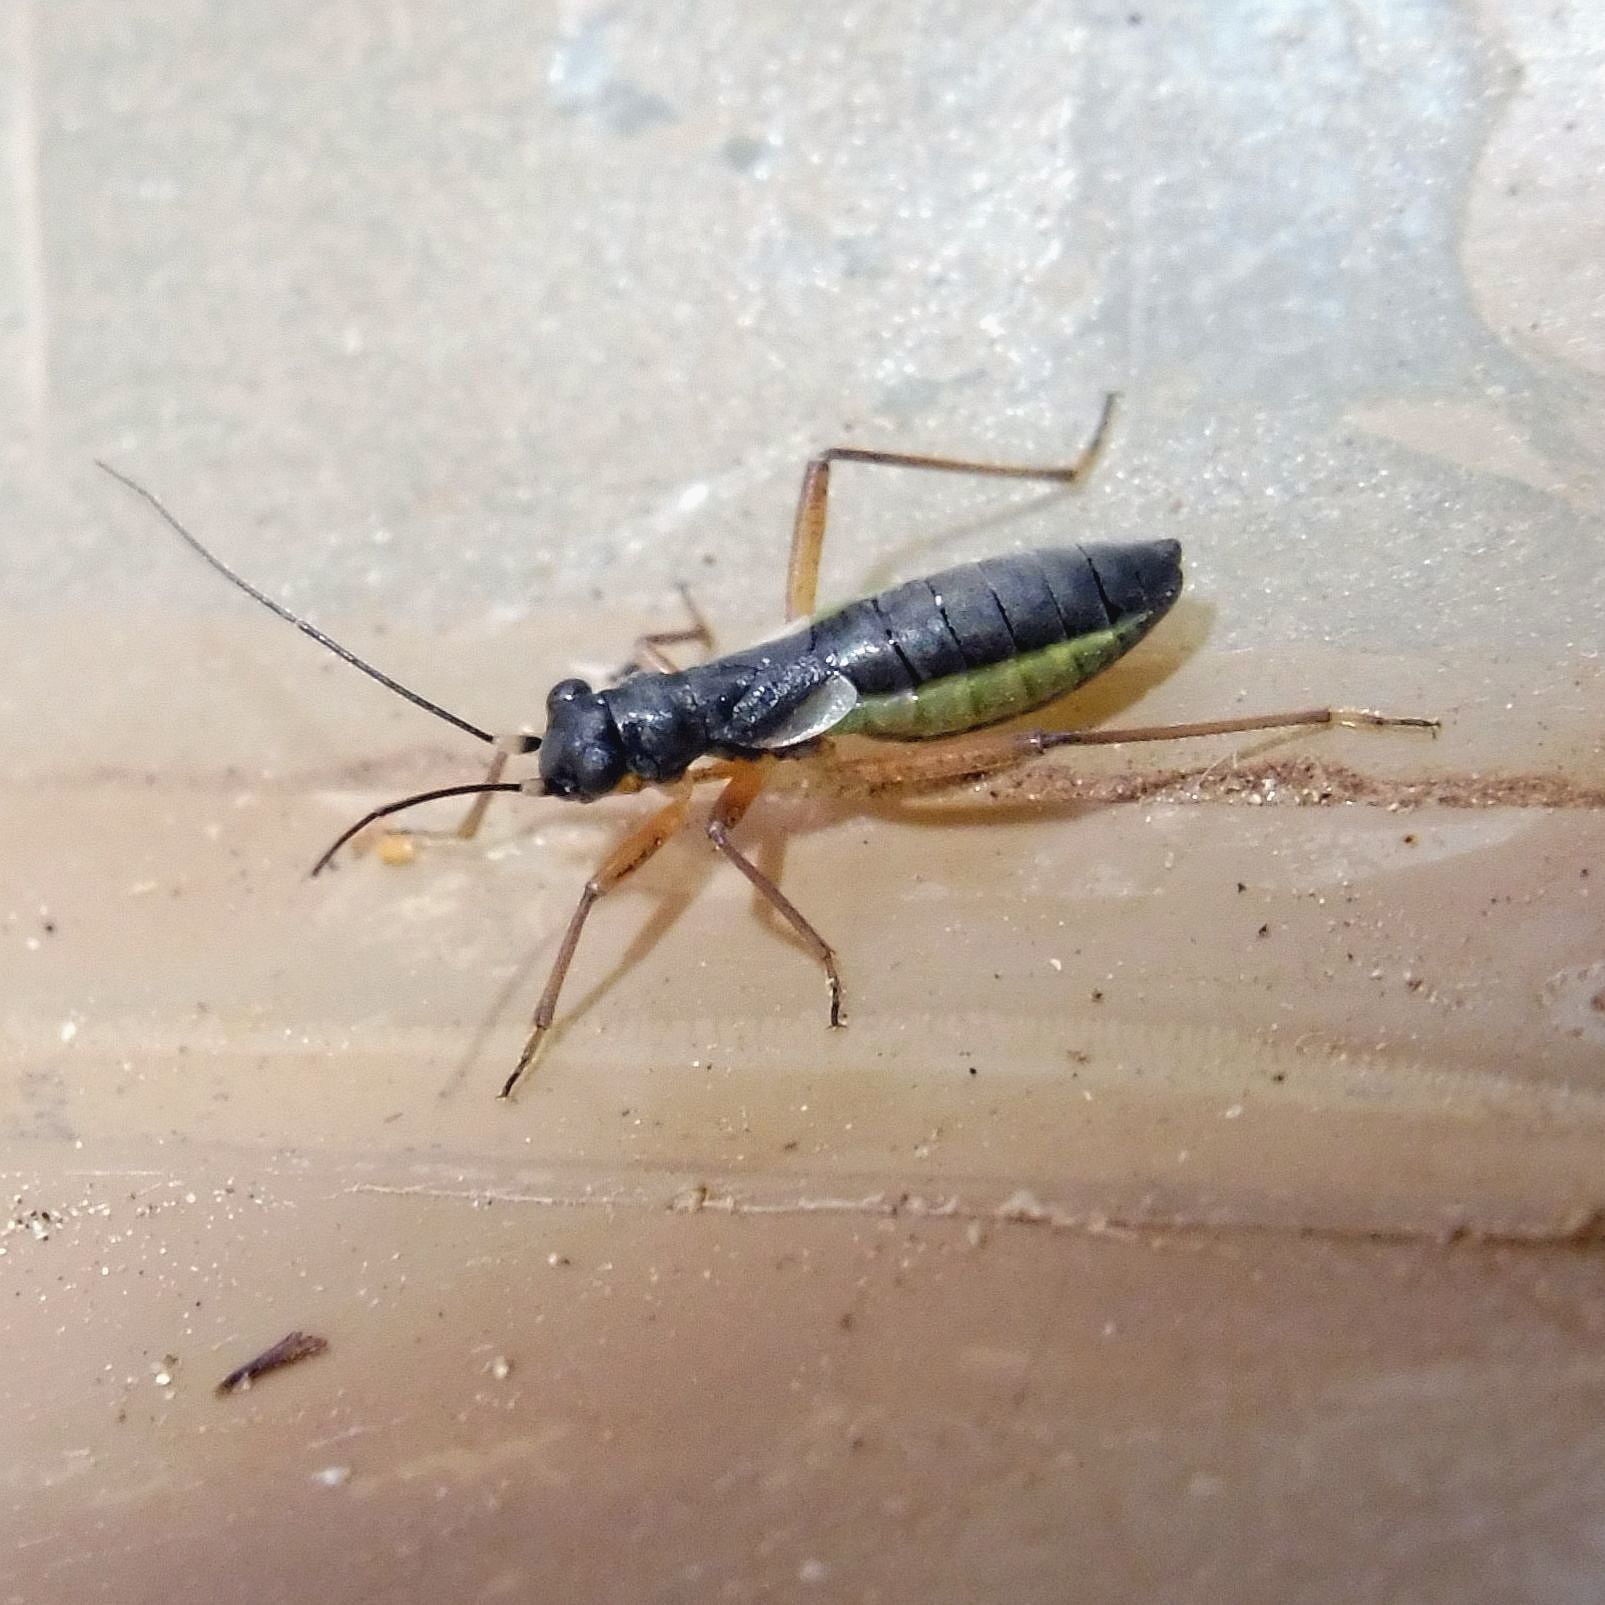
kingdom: Animalia
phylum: Arthropoda
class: Insecta
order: Hemiptera
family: Miridae
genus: Pithanus
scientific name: Pithanus maerkelii
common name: Plant bug
